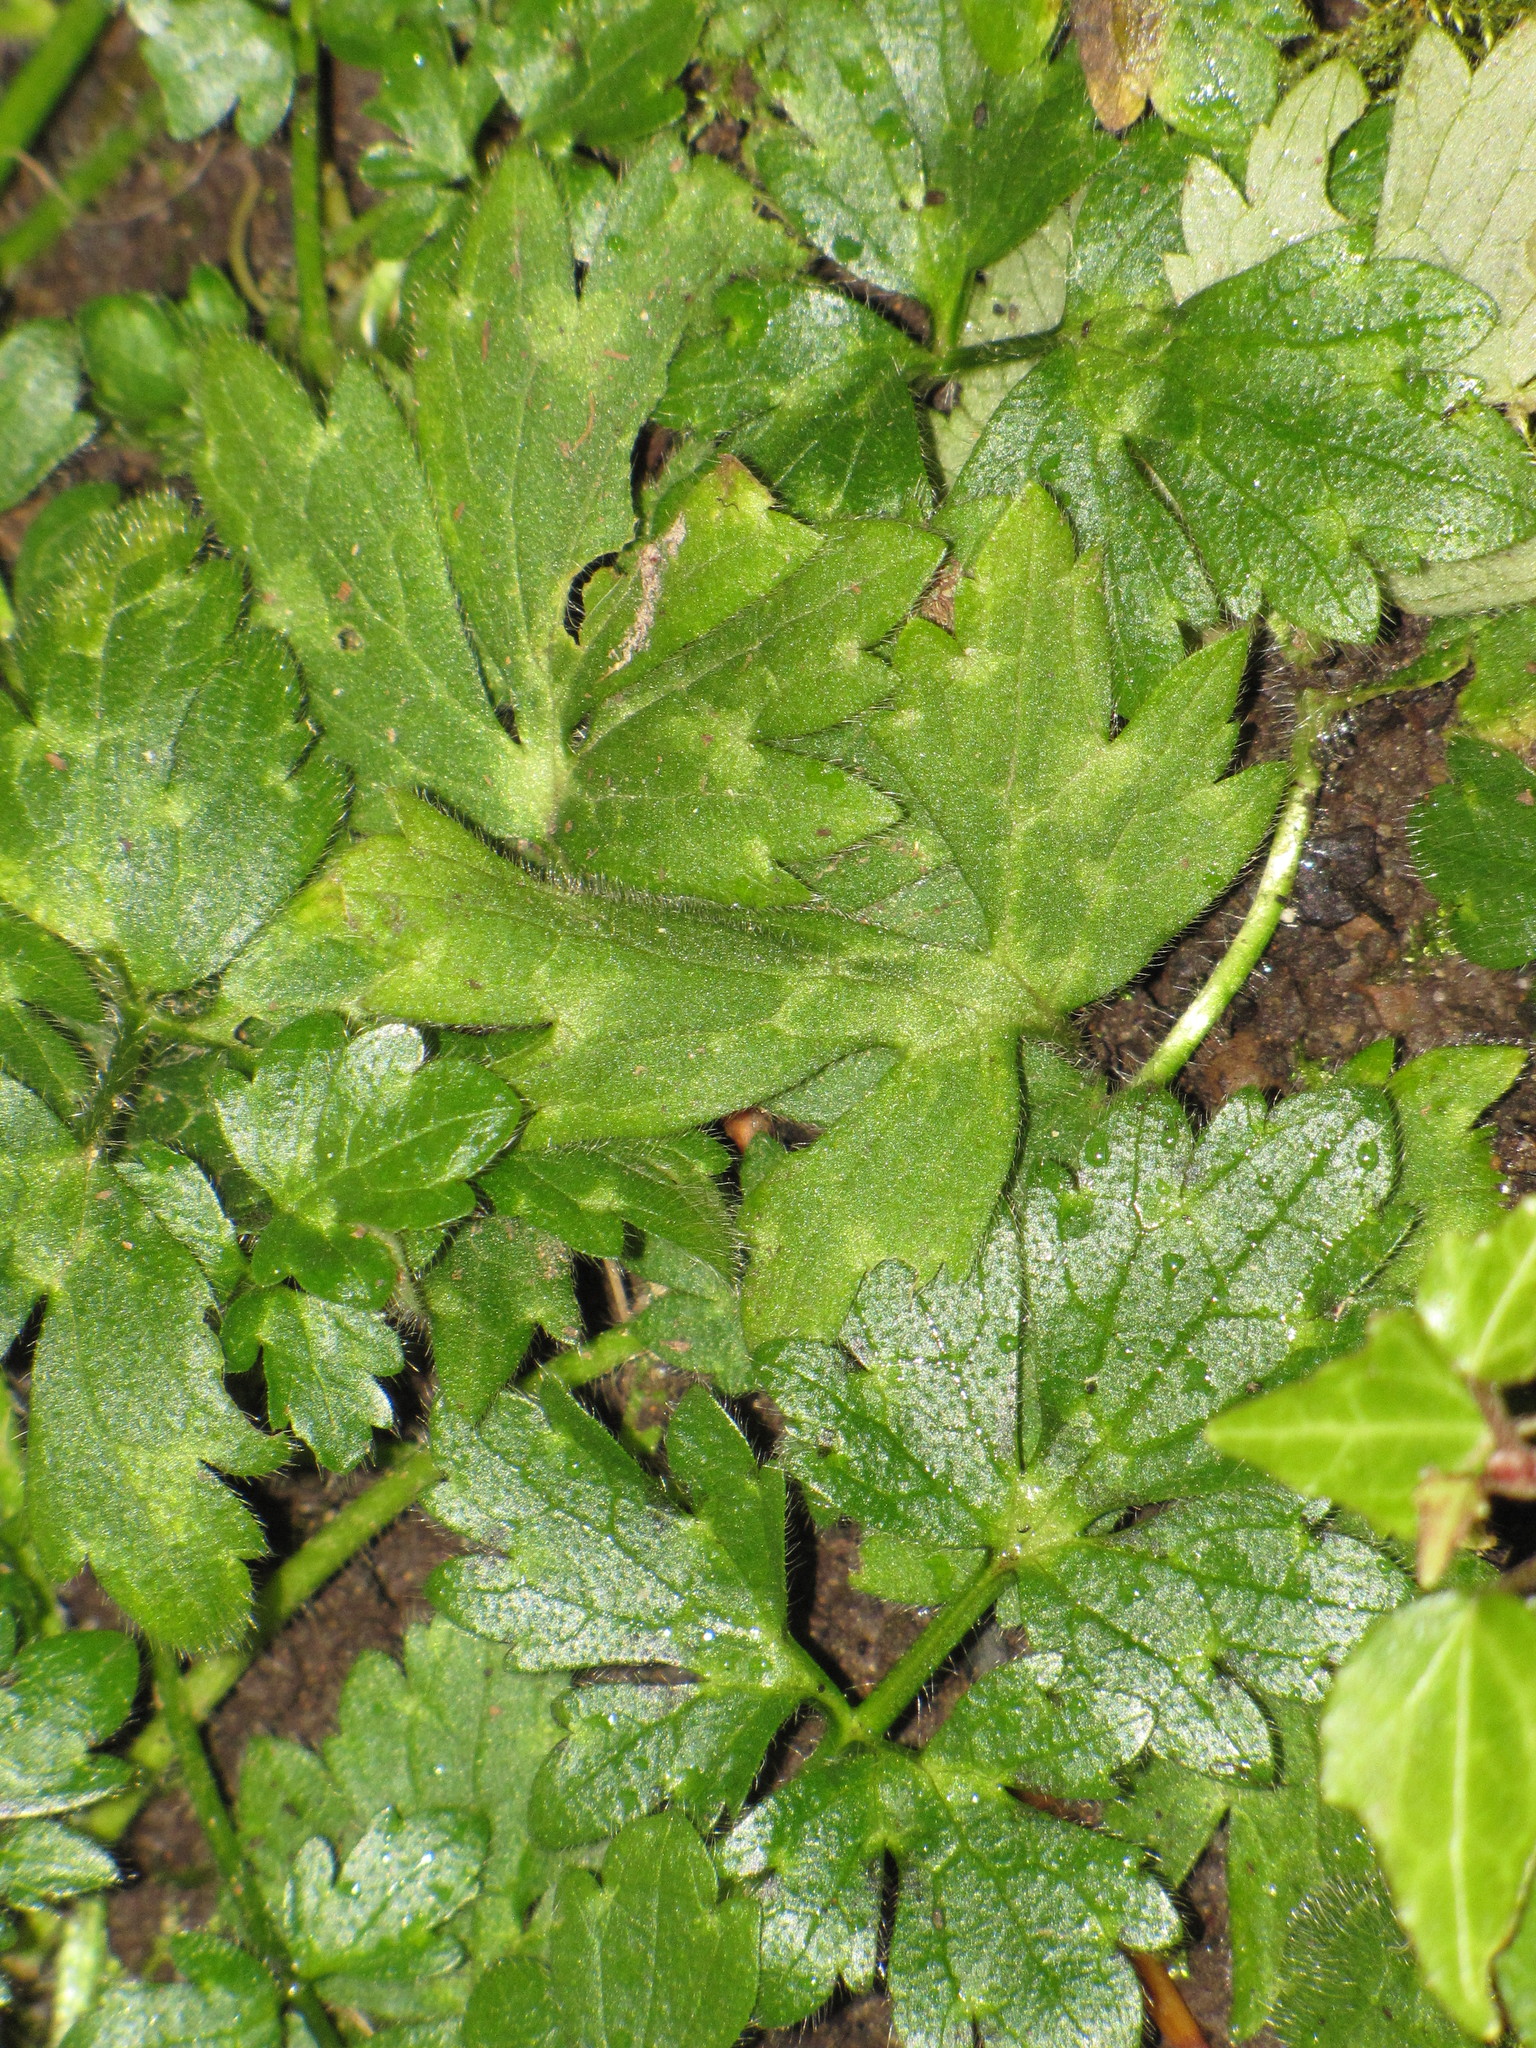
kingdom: Plantae
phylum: Tracheophyta
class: Magnoliopsida
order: Ranunculales
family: Ranunculaceae
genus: Ranunculus
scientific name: Ranunculus repens
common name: Creeping buttercup
